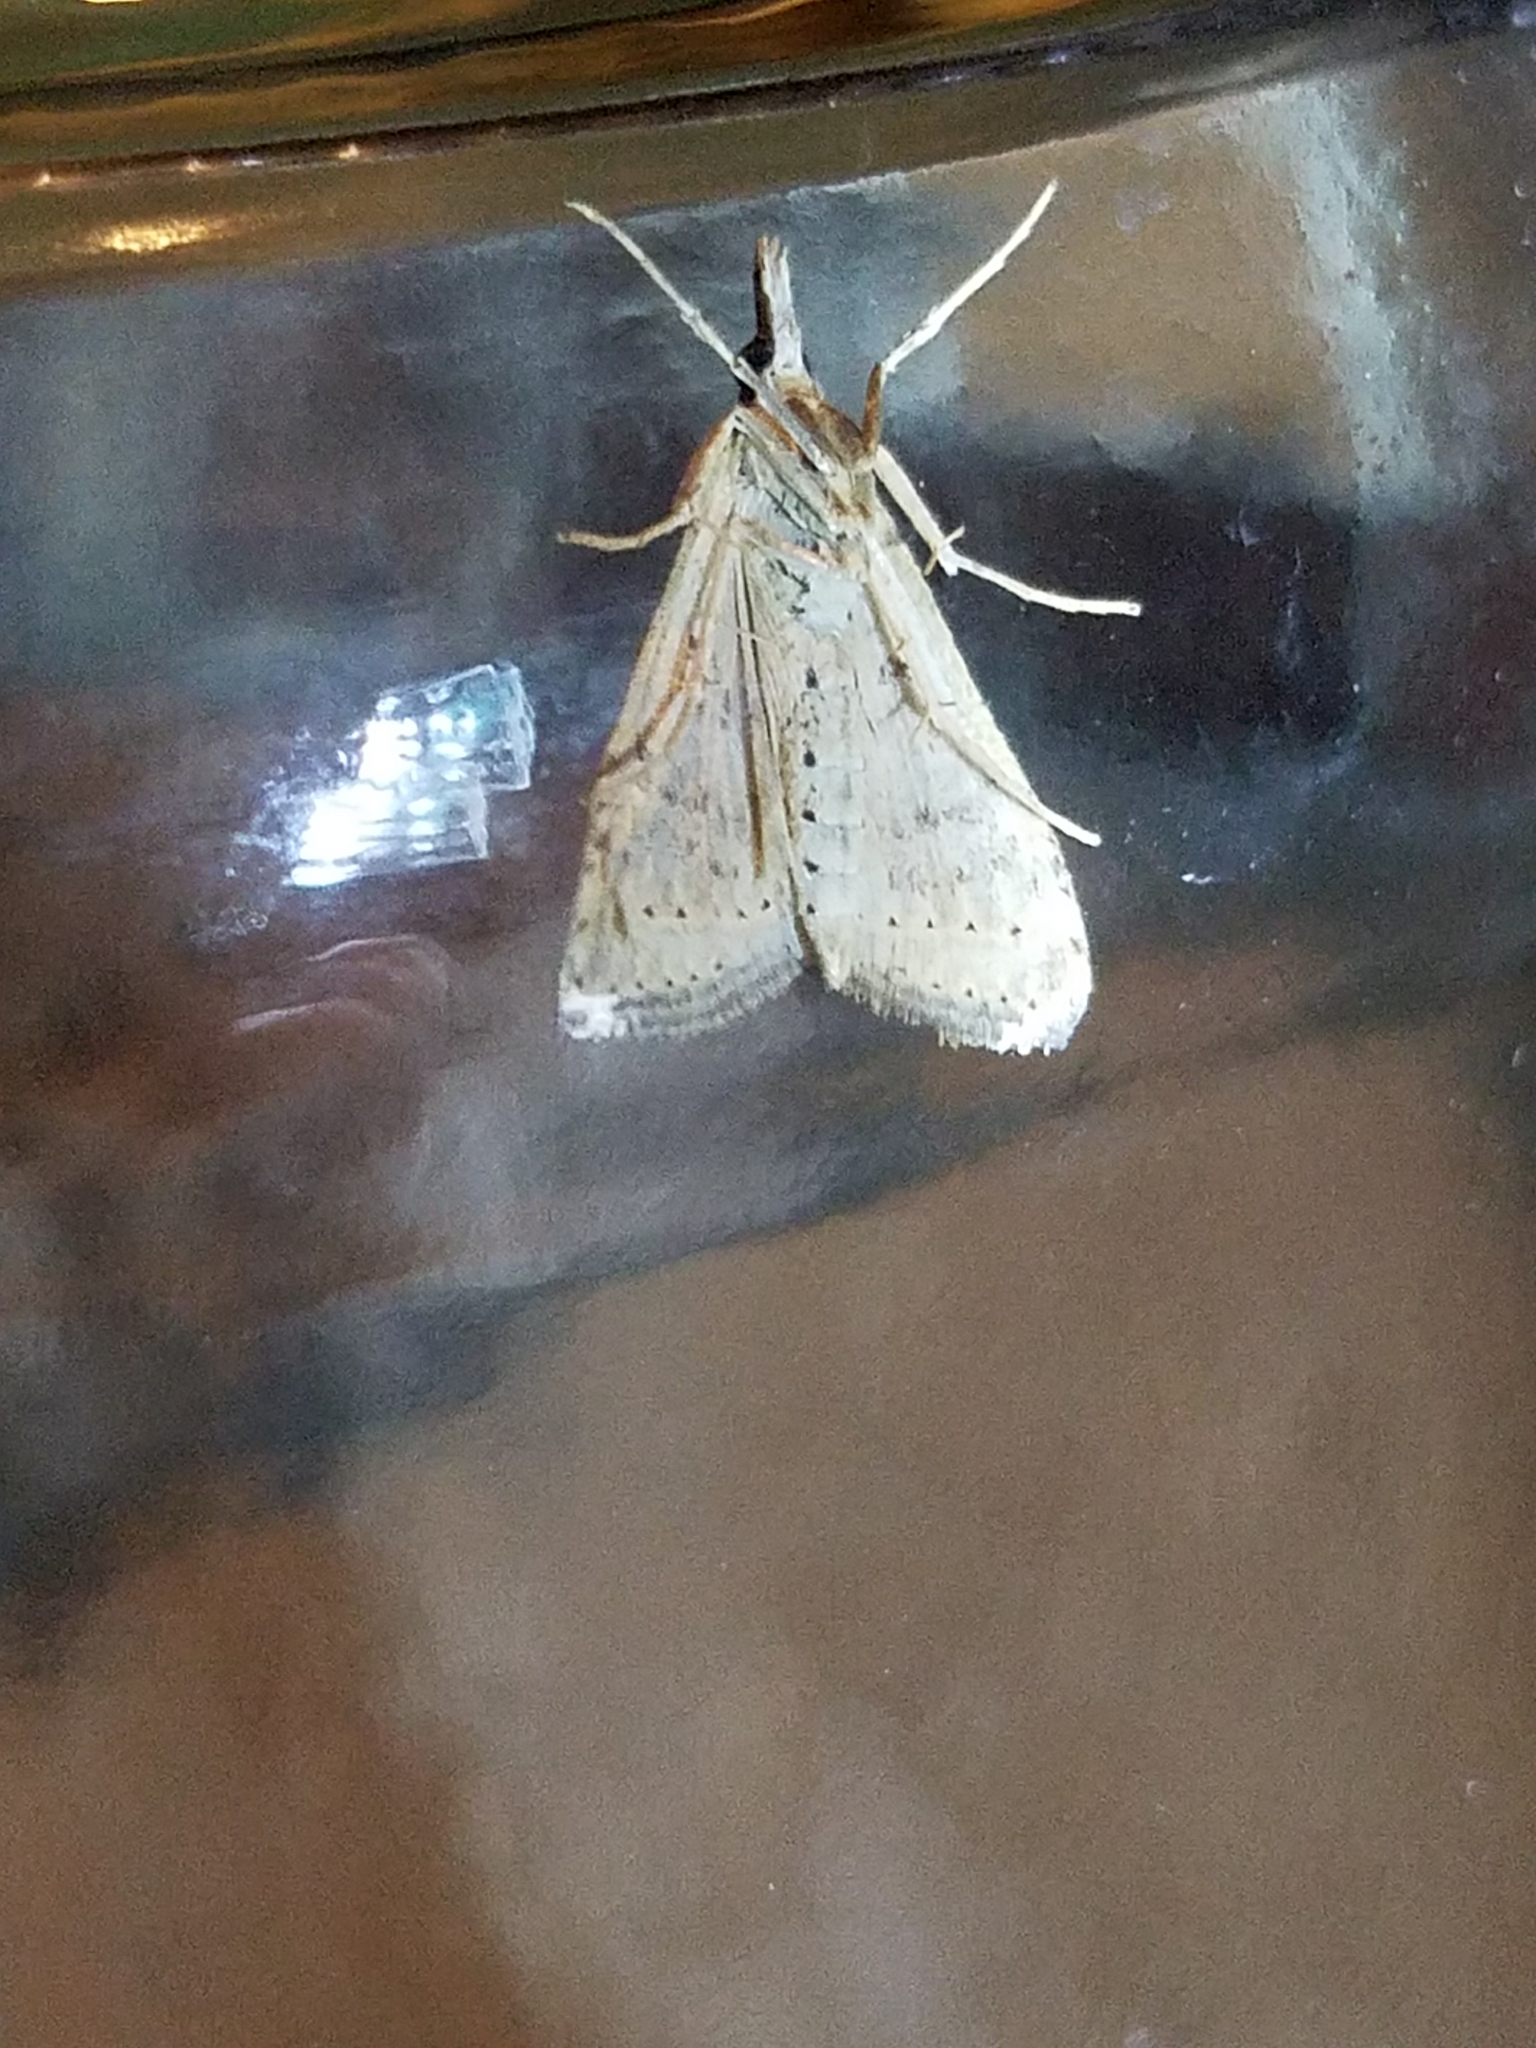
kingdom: Animalia
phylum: Arthropoda
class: Insecta
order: Lepidoptera
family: Crambidae
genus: Udea
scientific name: Udea rubigalis
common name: Celery leaftier moth
